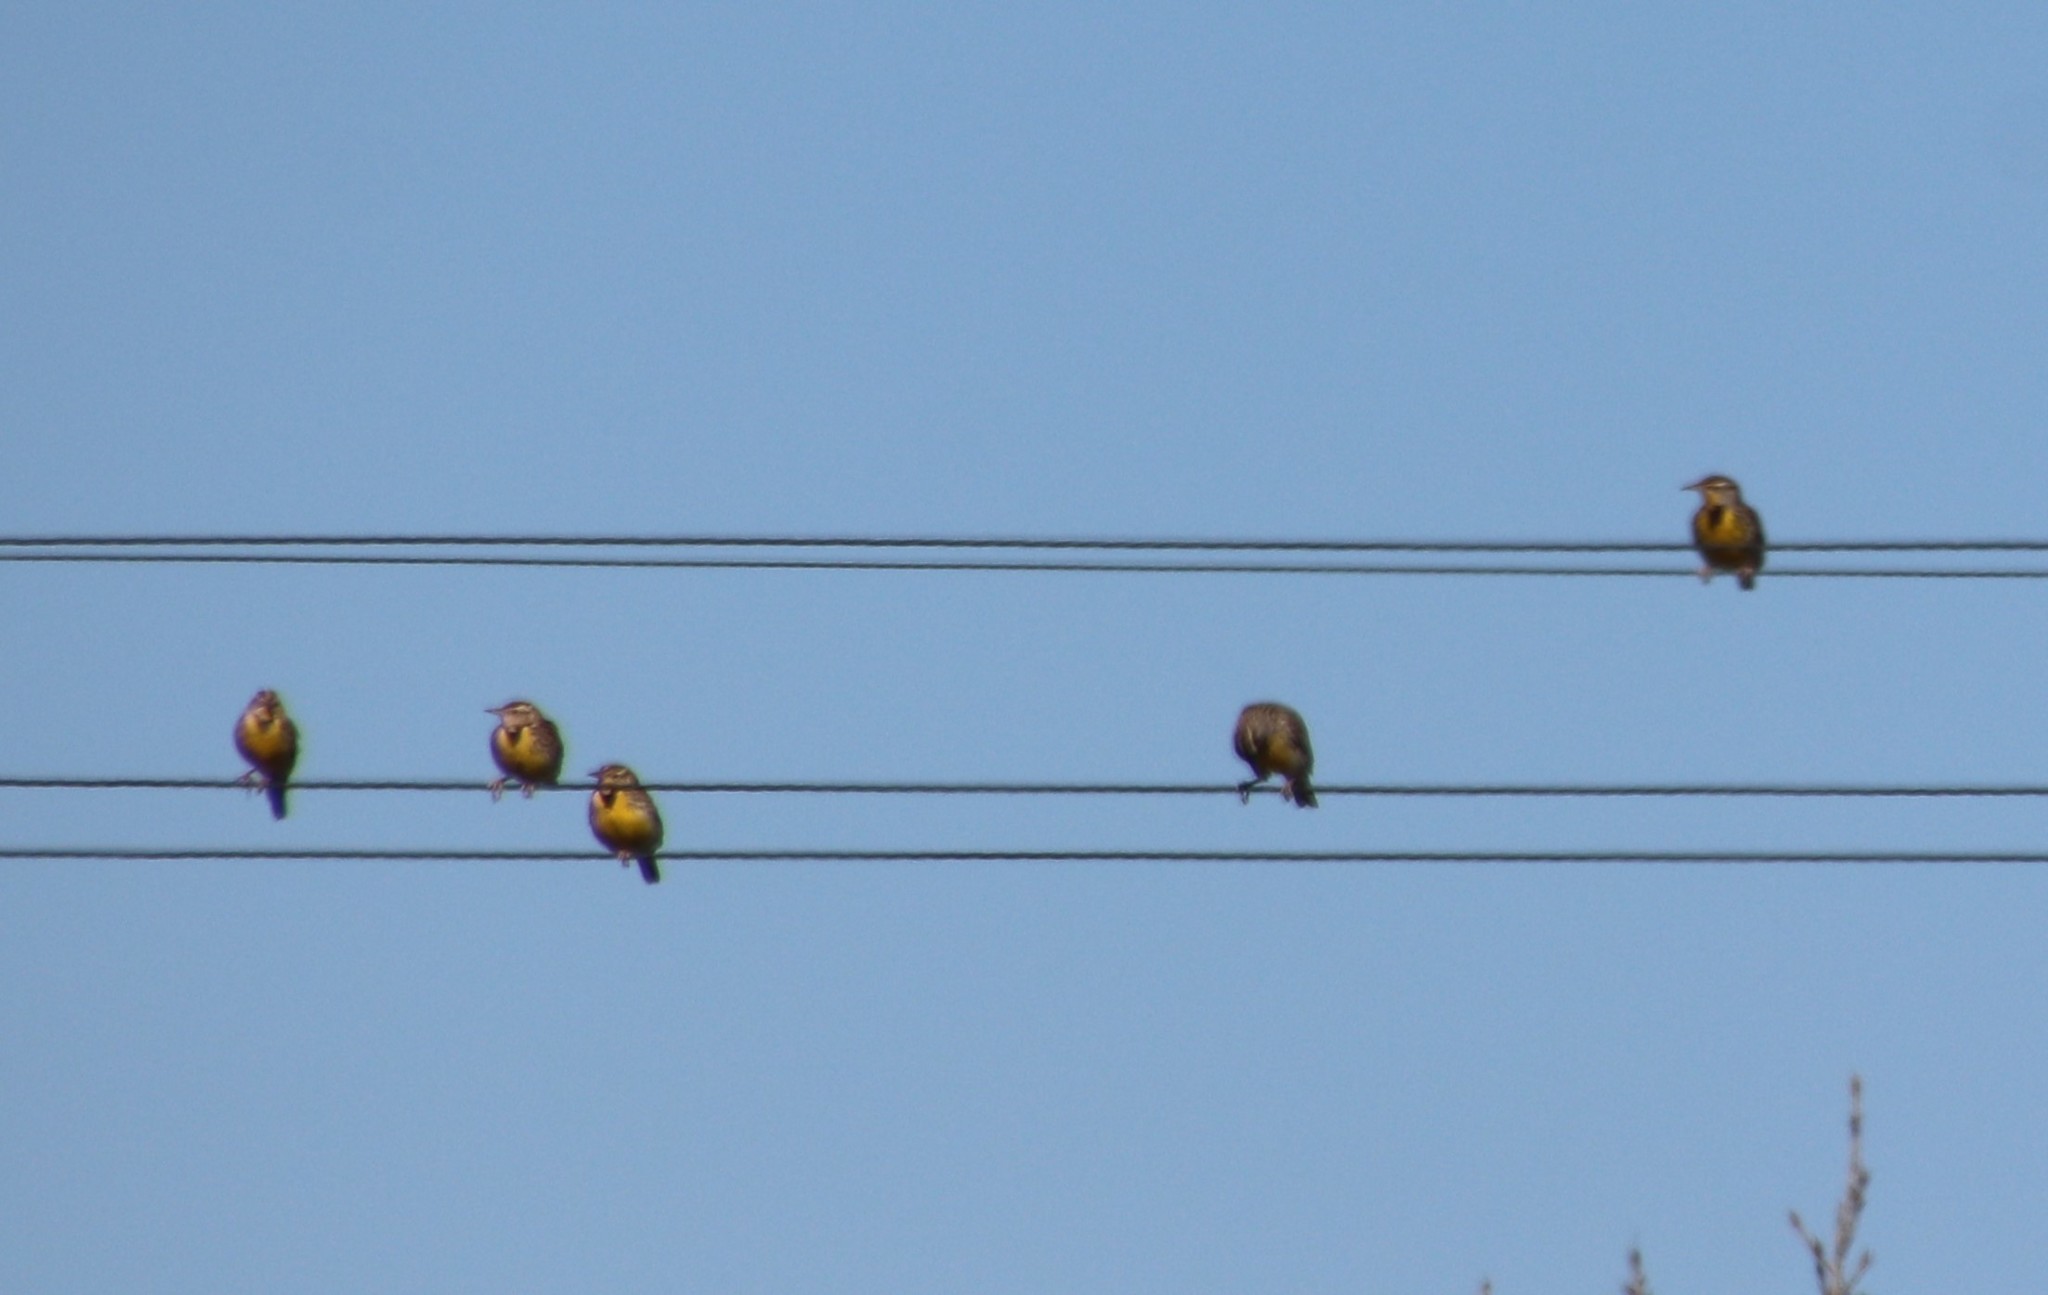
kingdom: Animalia
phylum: Chordata
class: Aves
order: Passeriformes
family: Icteridae
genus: Sturnella
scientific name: Sturnella neglecta
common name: Western meadowlark
